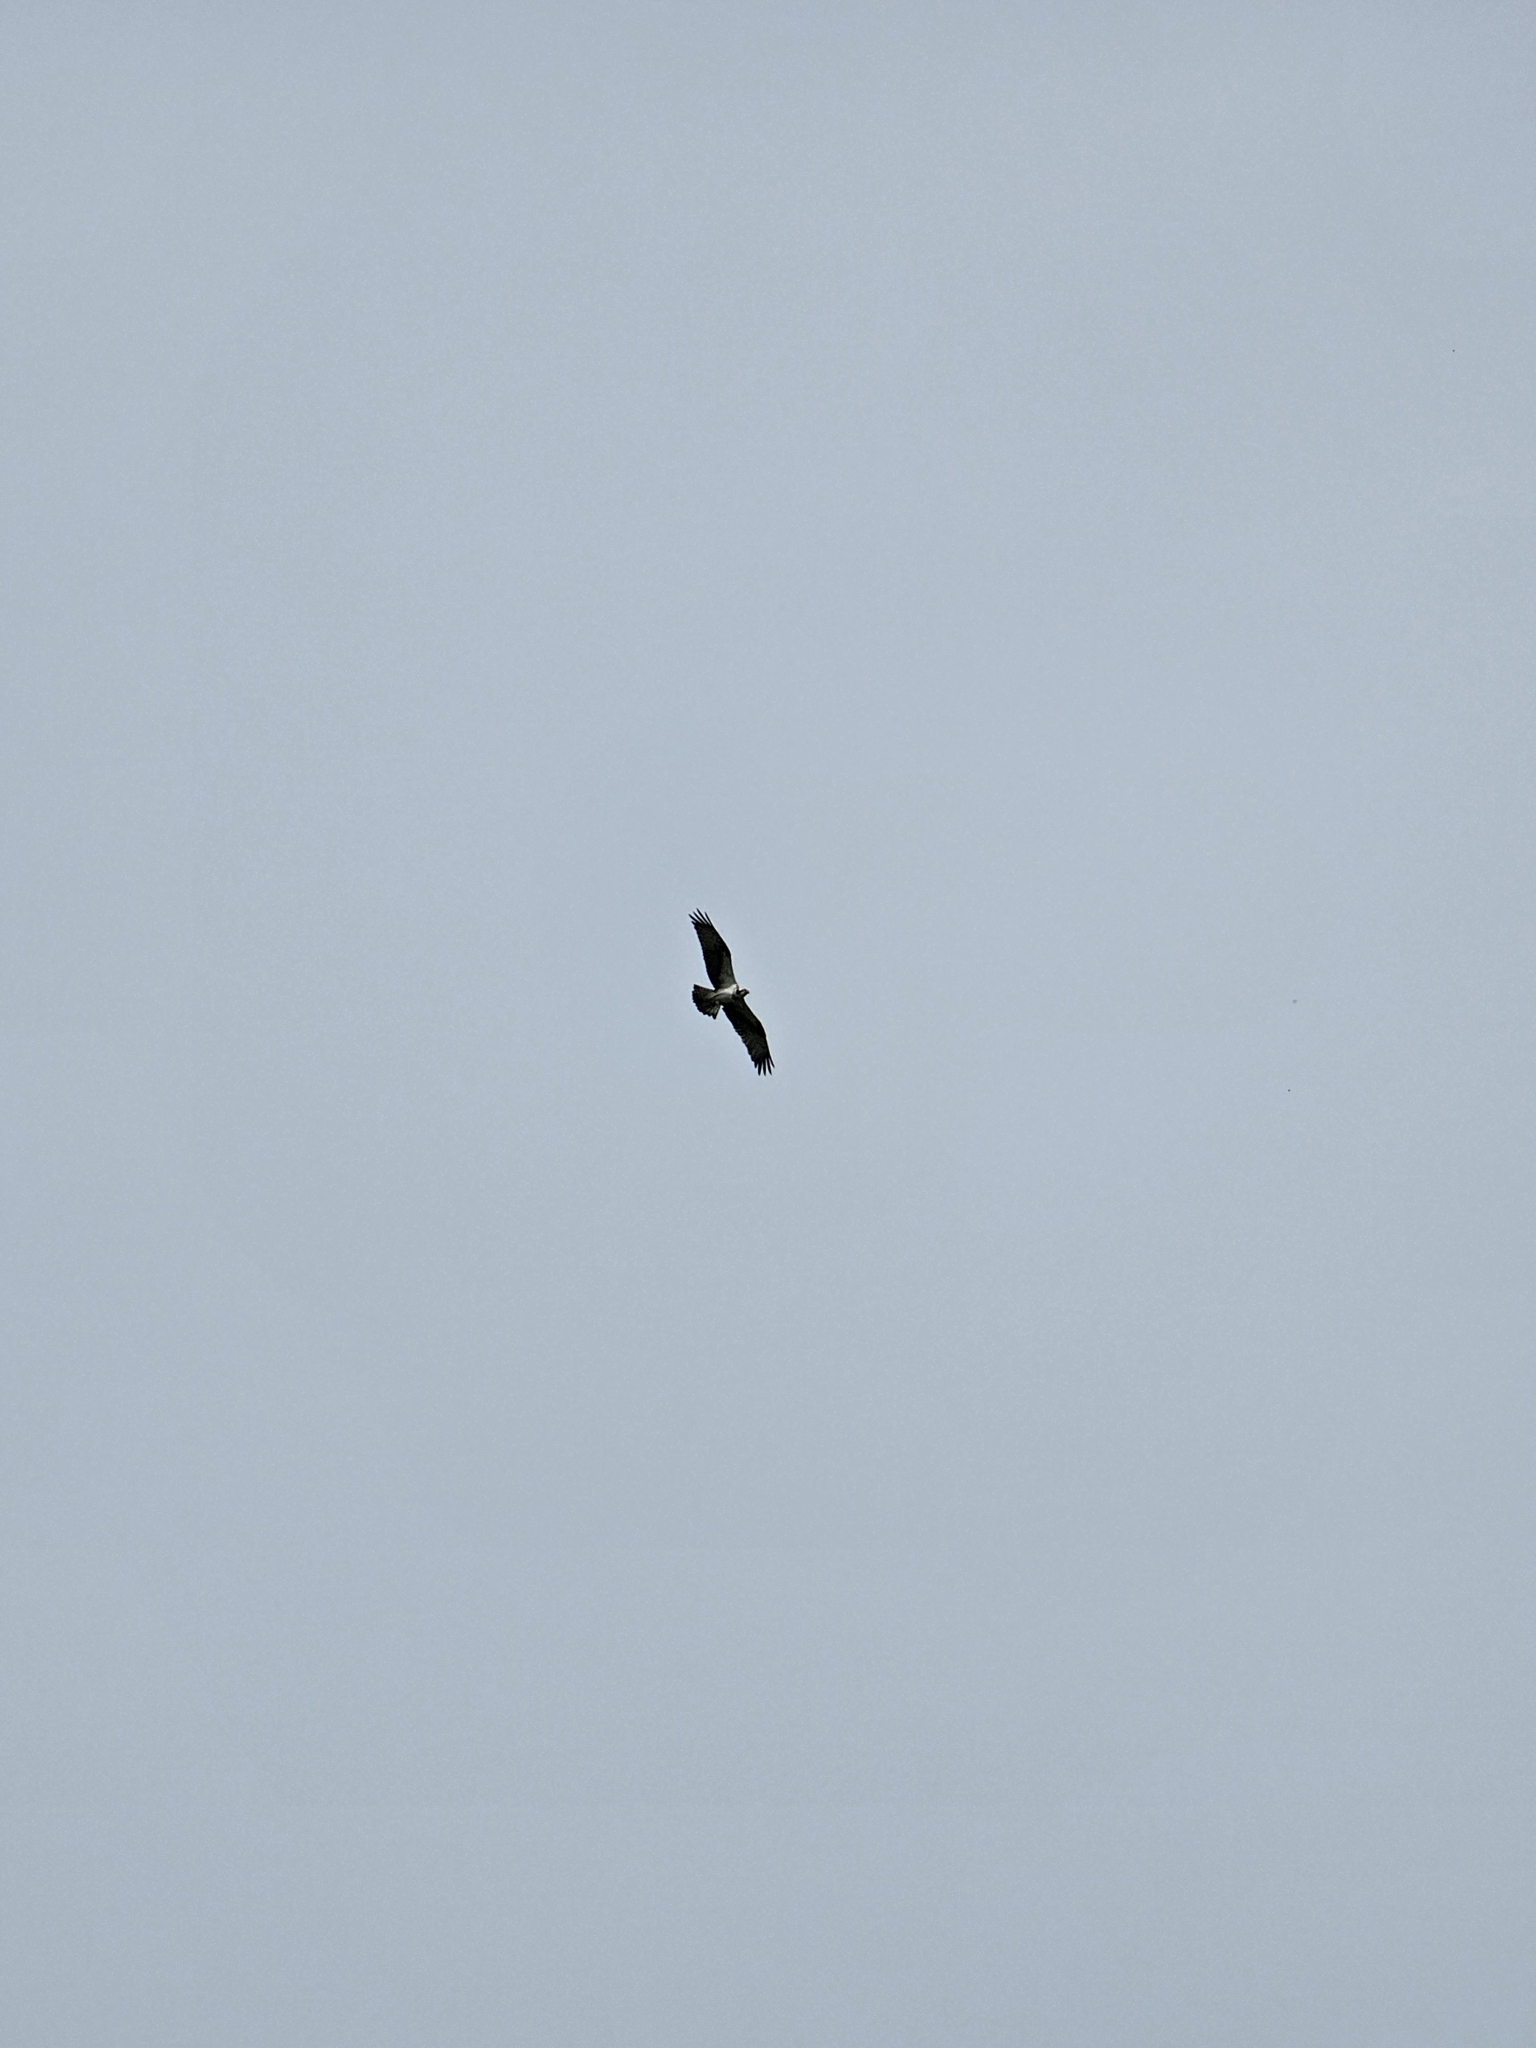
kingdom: Animalia
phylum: Chordata
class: Aves
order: Accipitriformes
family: Pandionidae
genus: Pandion
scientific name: Pandion haliaetus
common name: Osprey
